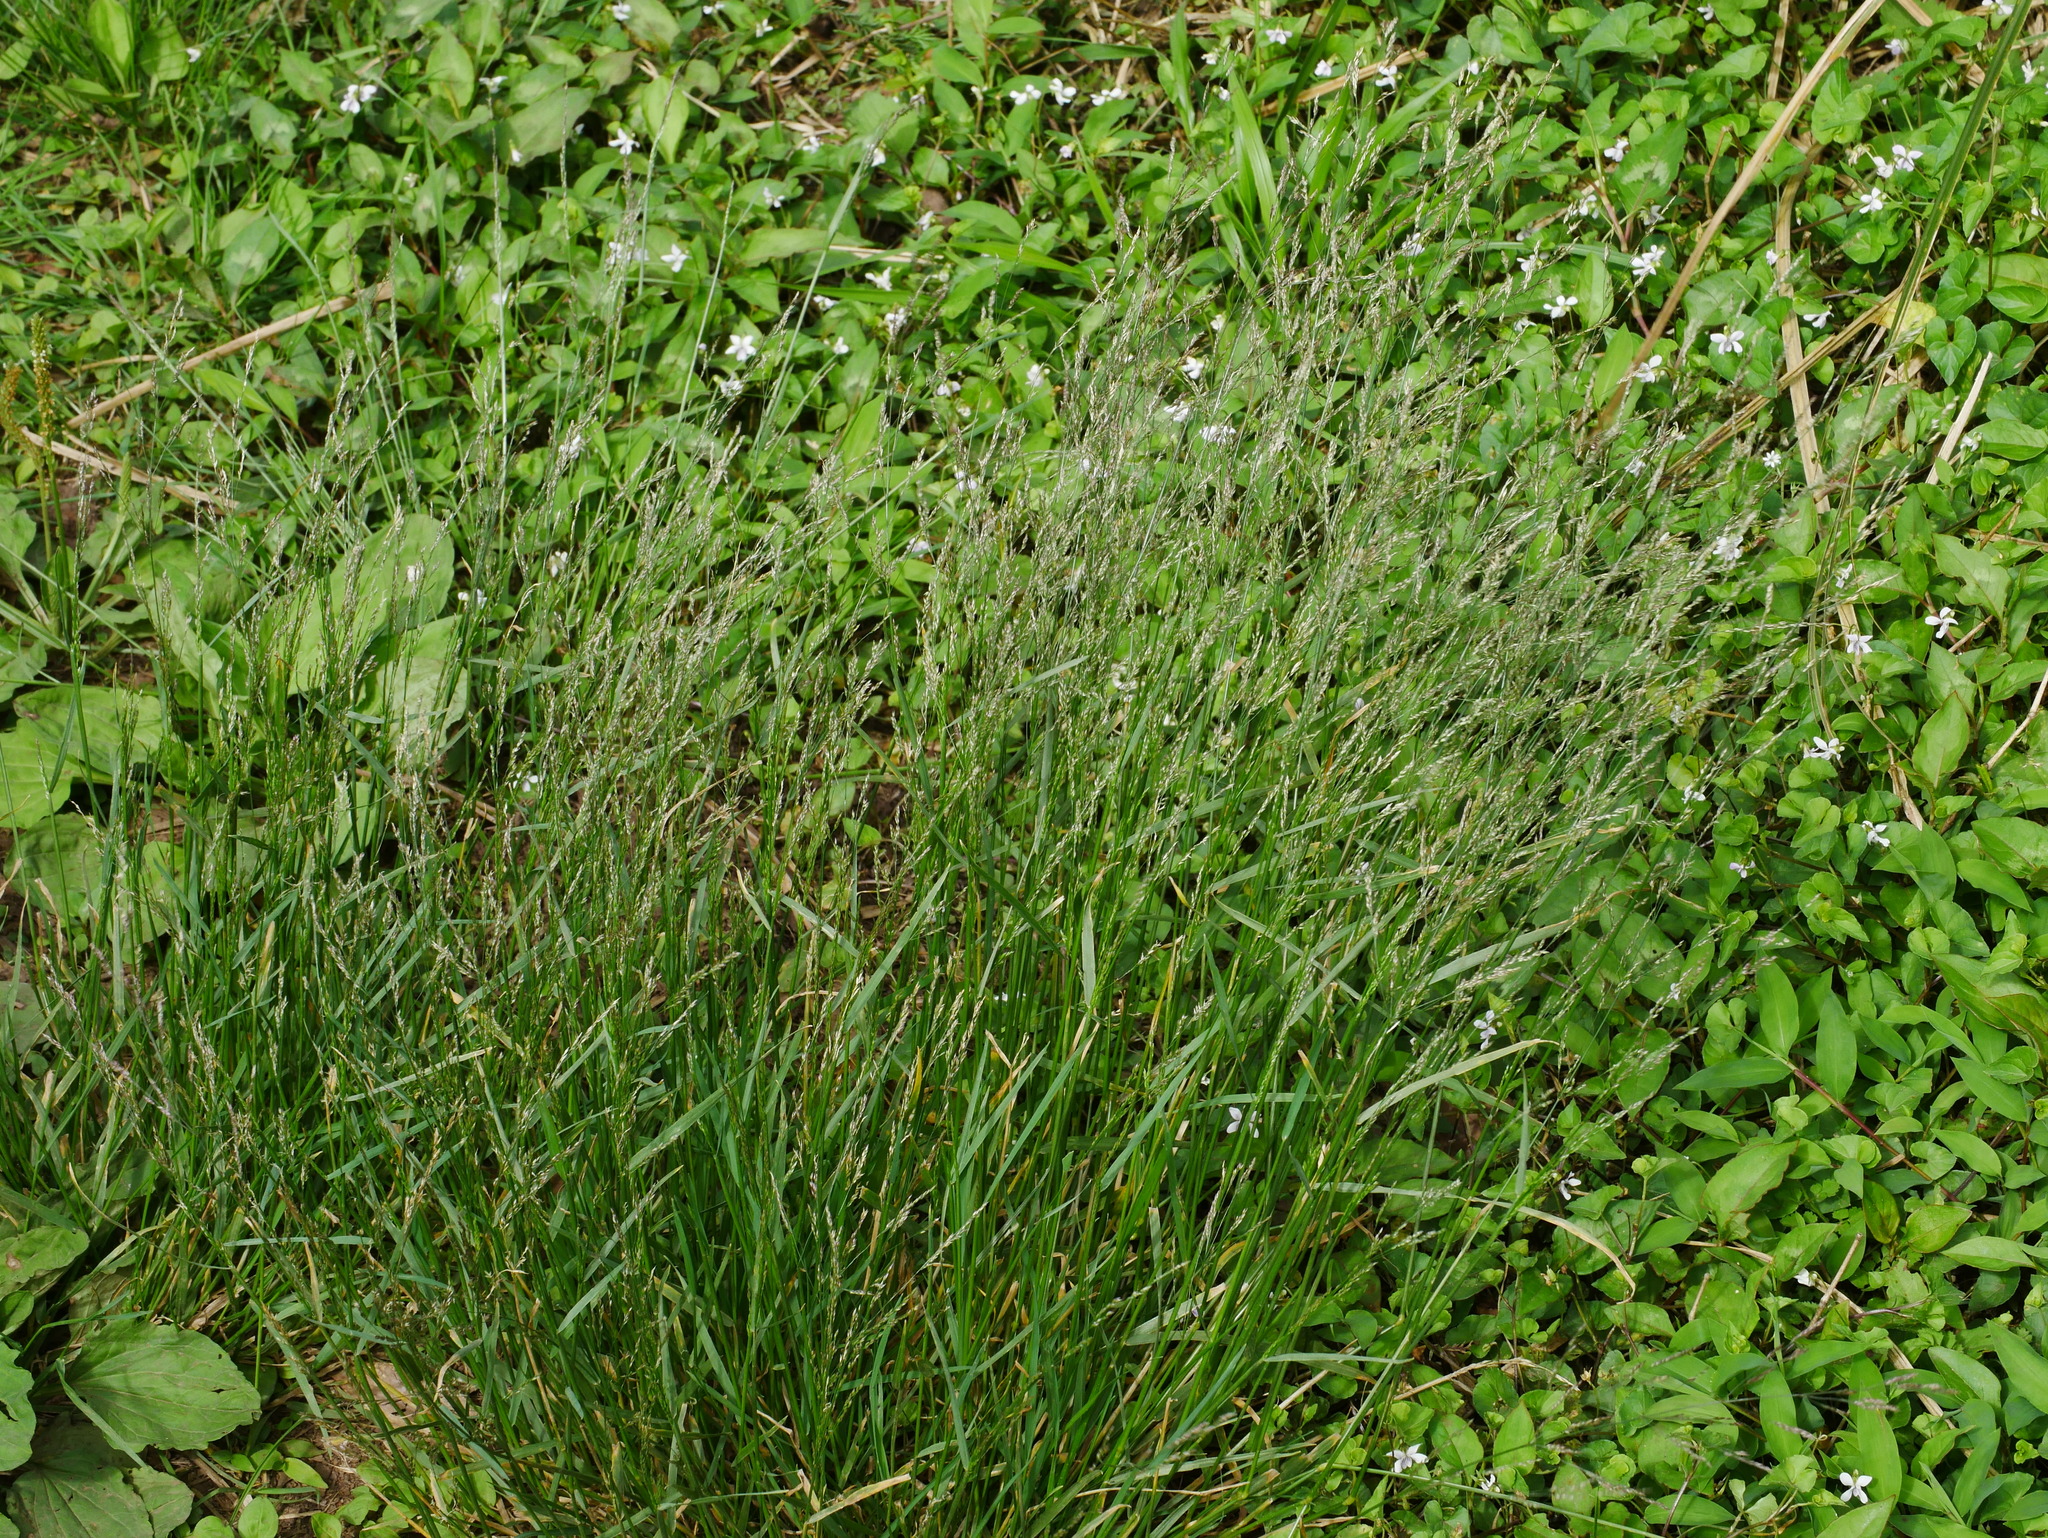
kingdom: Plantae
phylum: Tracheophyta
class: Liliopsida
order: Poales
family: Poaceae
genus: Agrostis
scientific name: Agrostis infirma
